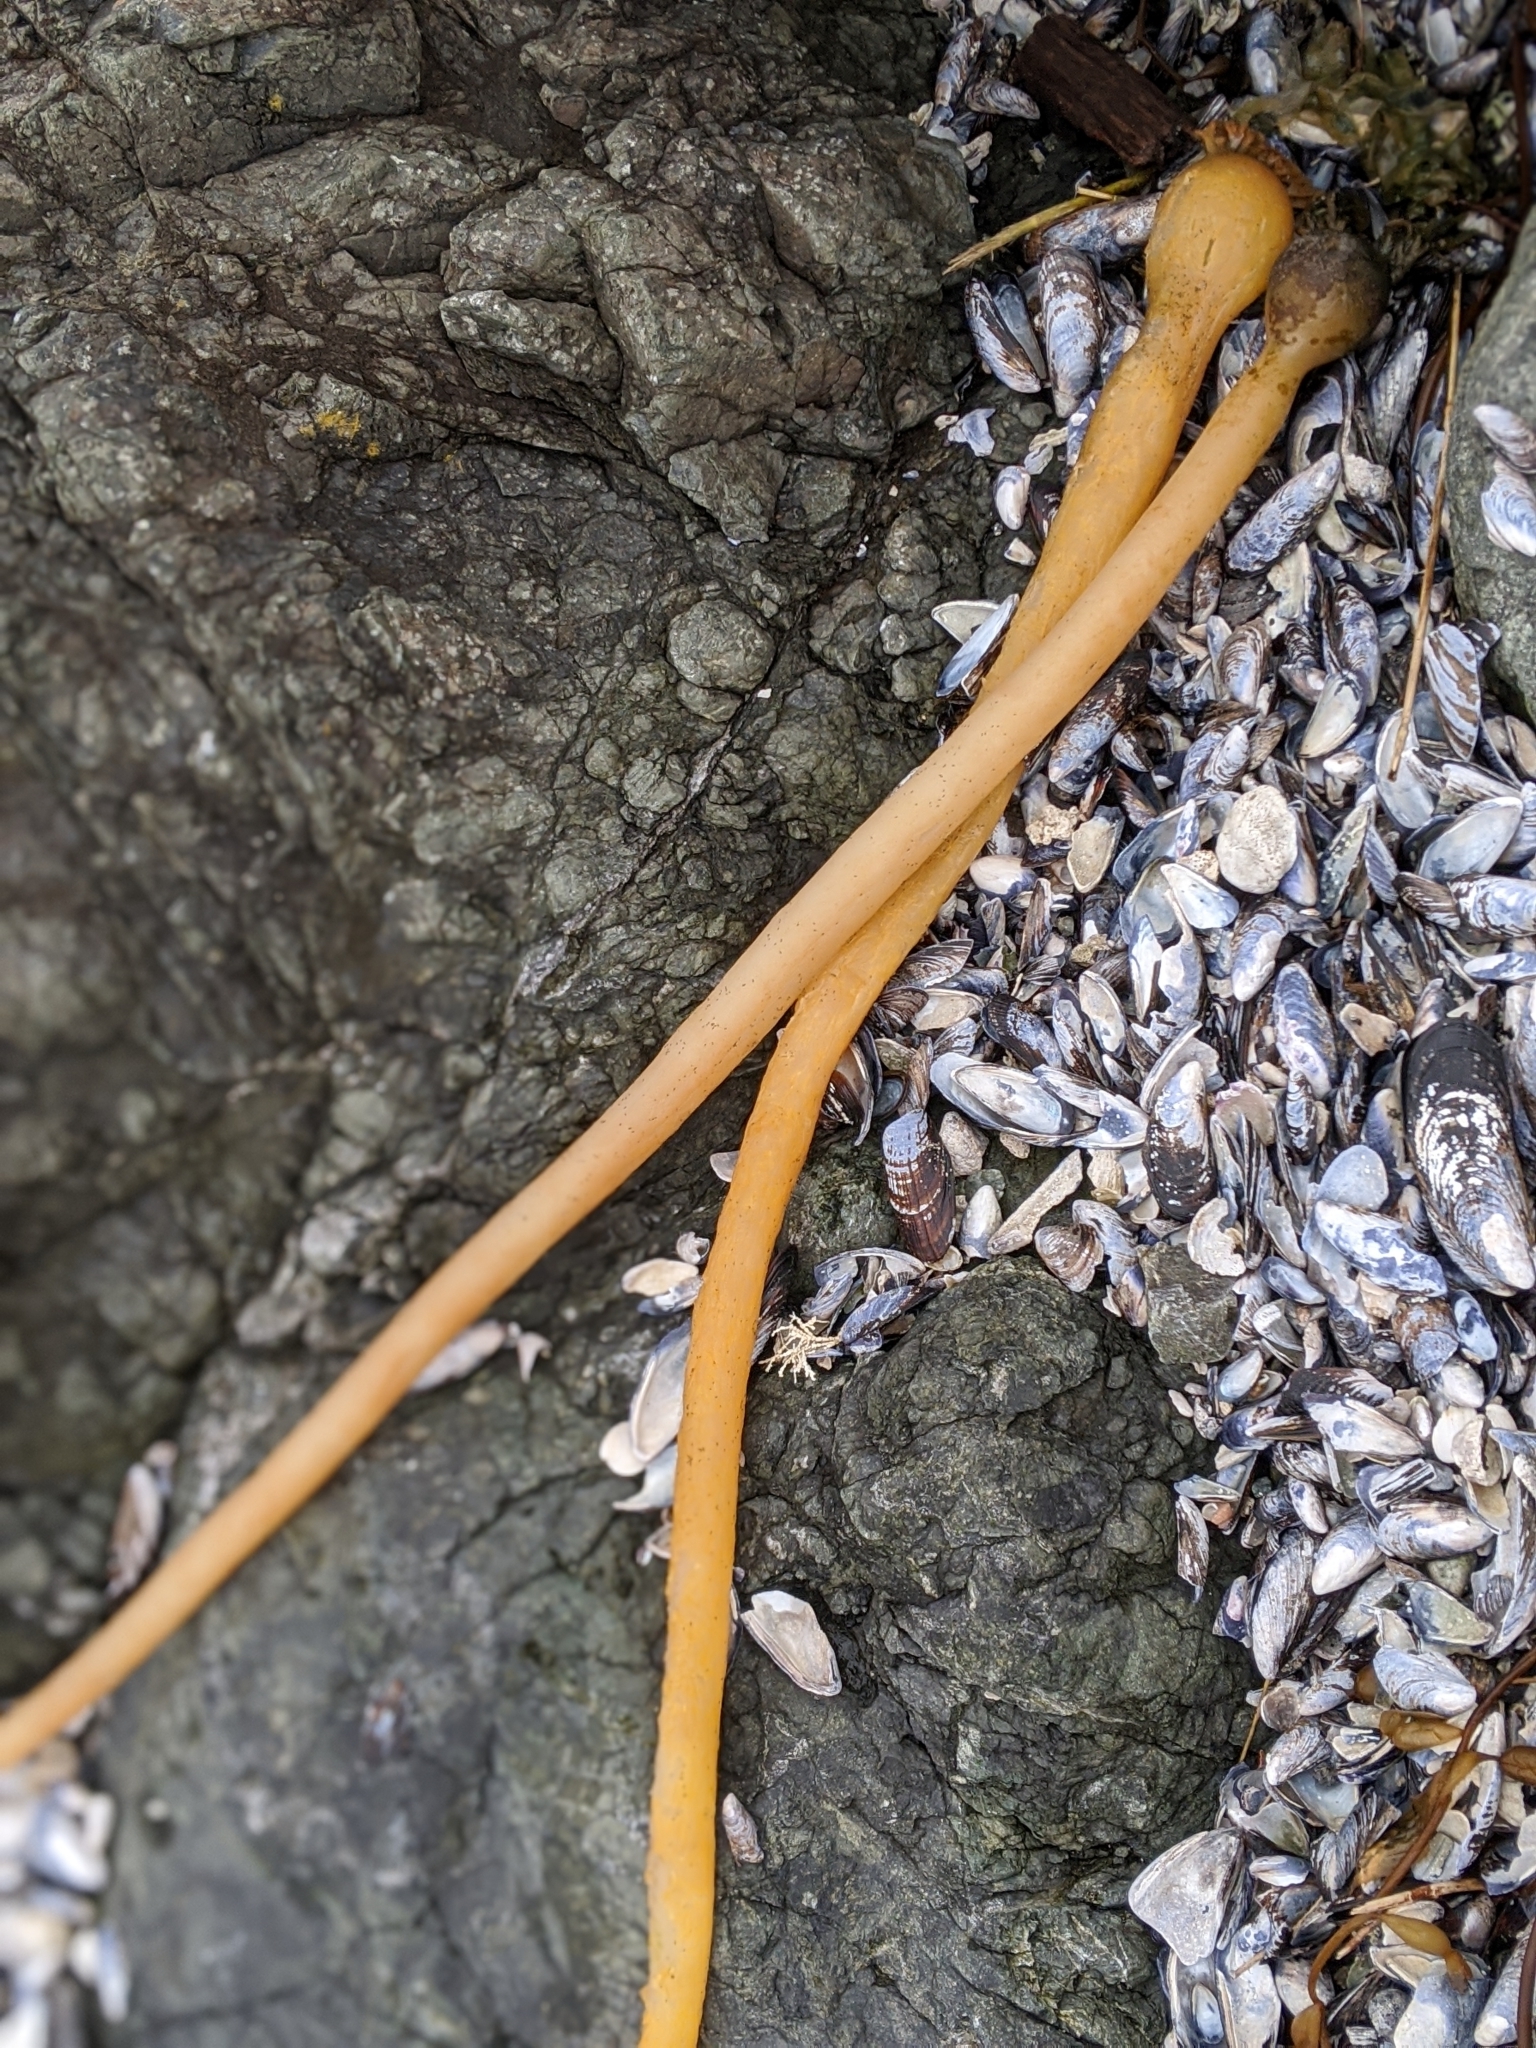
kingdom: Chromista
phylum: Ochrophyta
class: Phaeophyceae
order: Laminariales
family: Laminariaceae
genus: Nereocystis
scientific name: Nereocystis luetkeana
